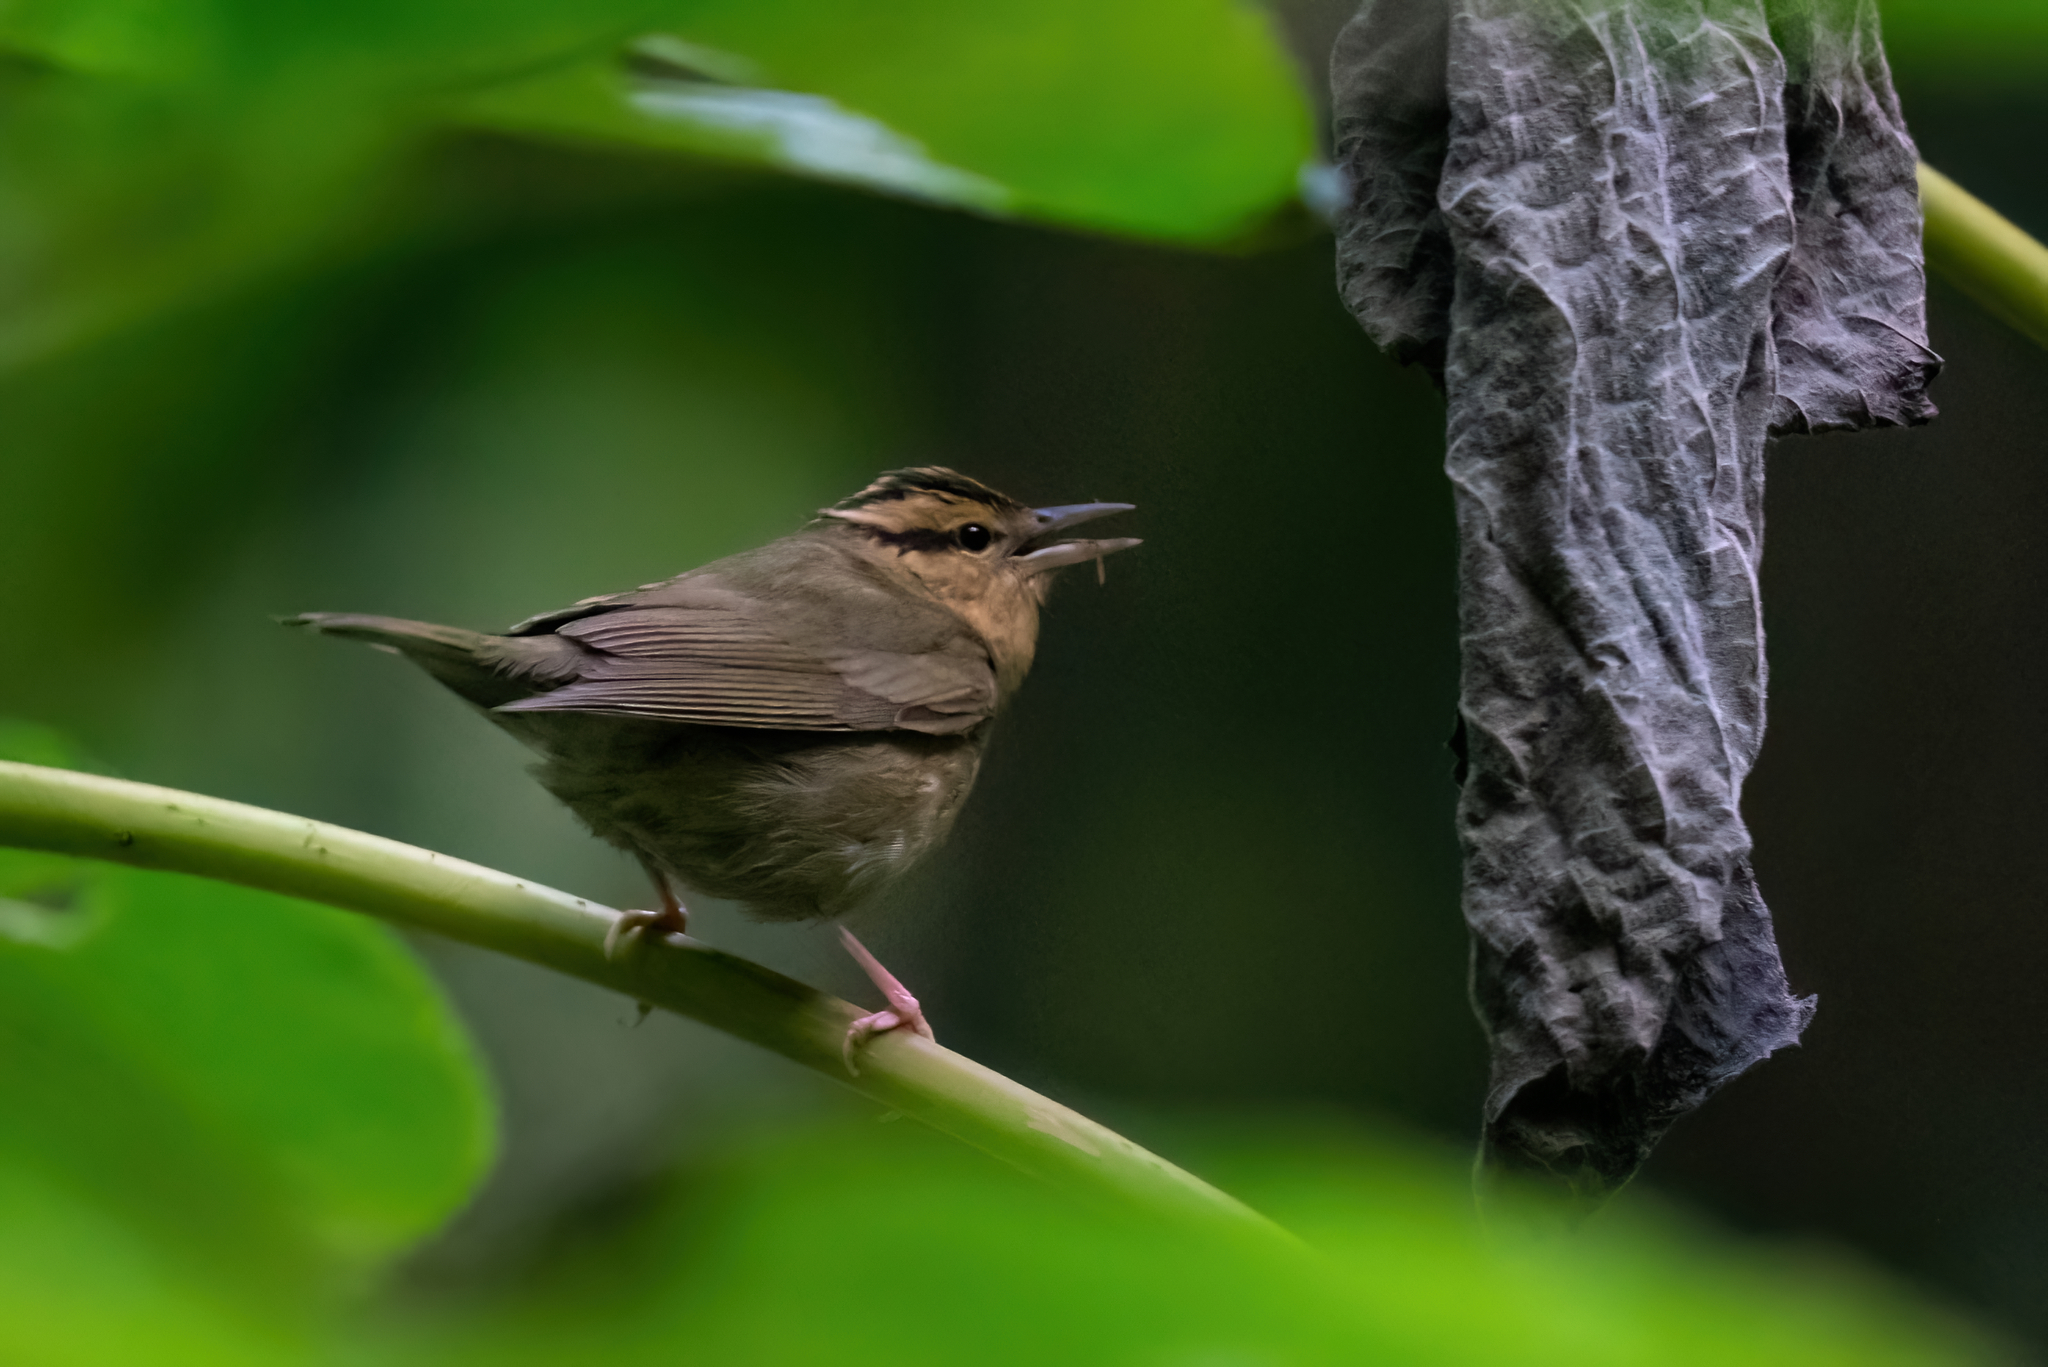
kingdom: Animalia
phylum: Chordata
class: Aves
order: Passeriformes
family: Parulidae
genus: Helmitheros
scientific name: Helmitheros vermivorum
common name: Worm-eating warbler
